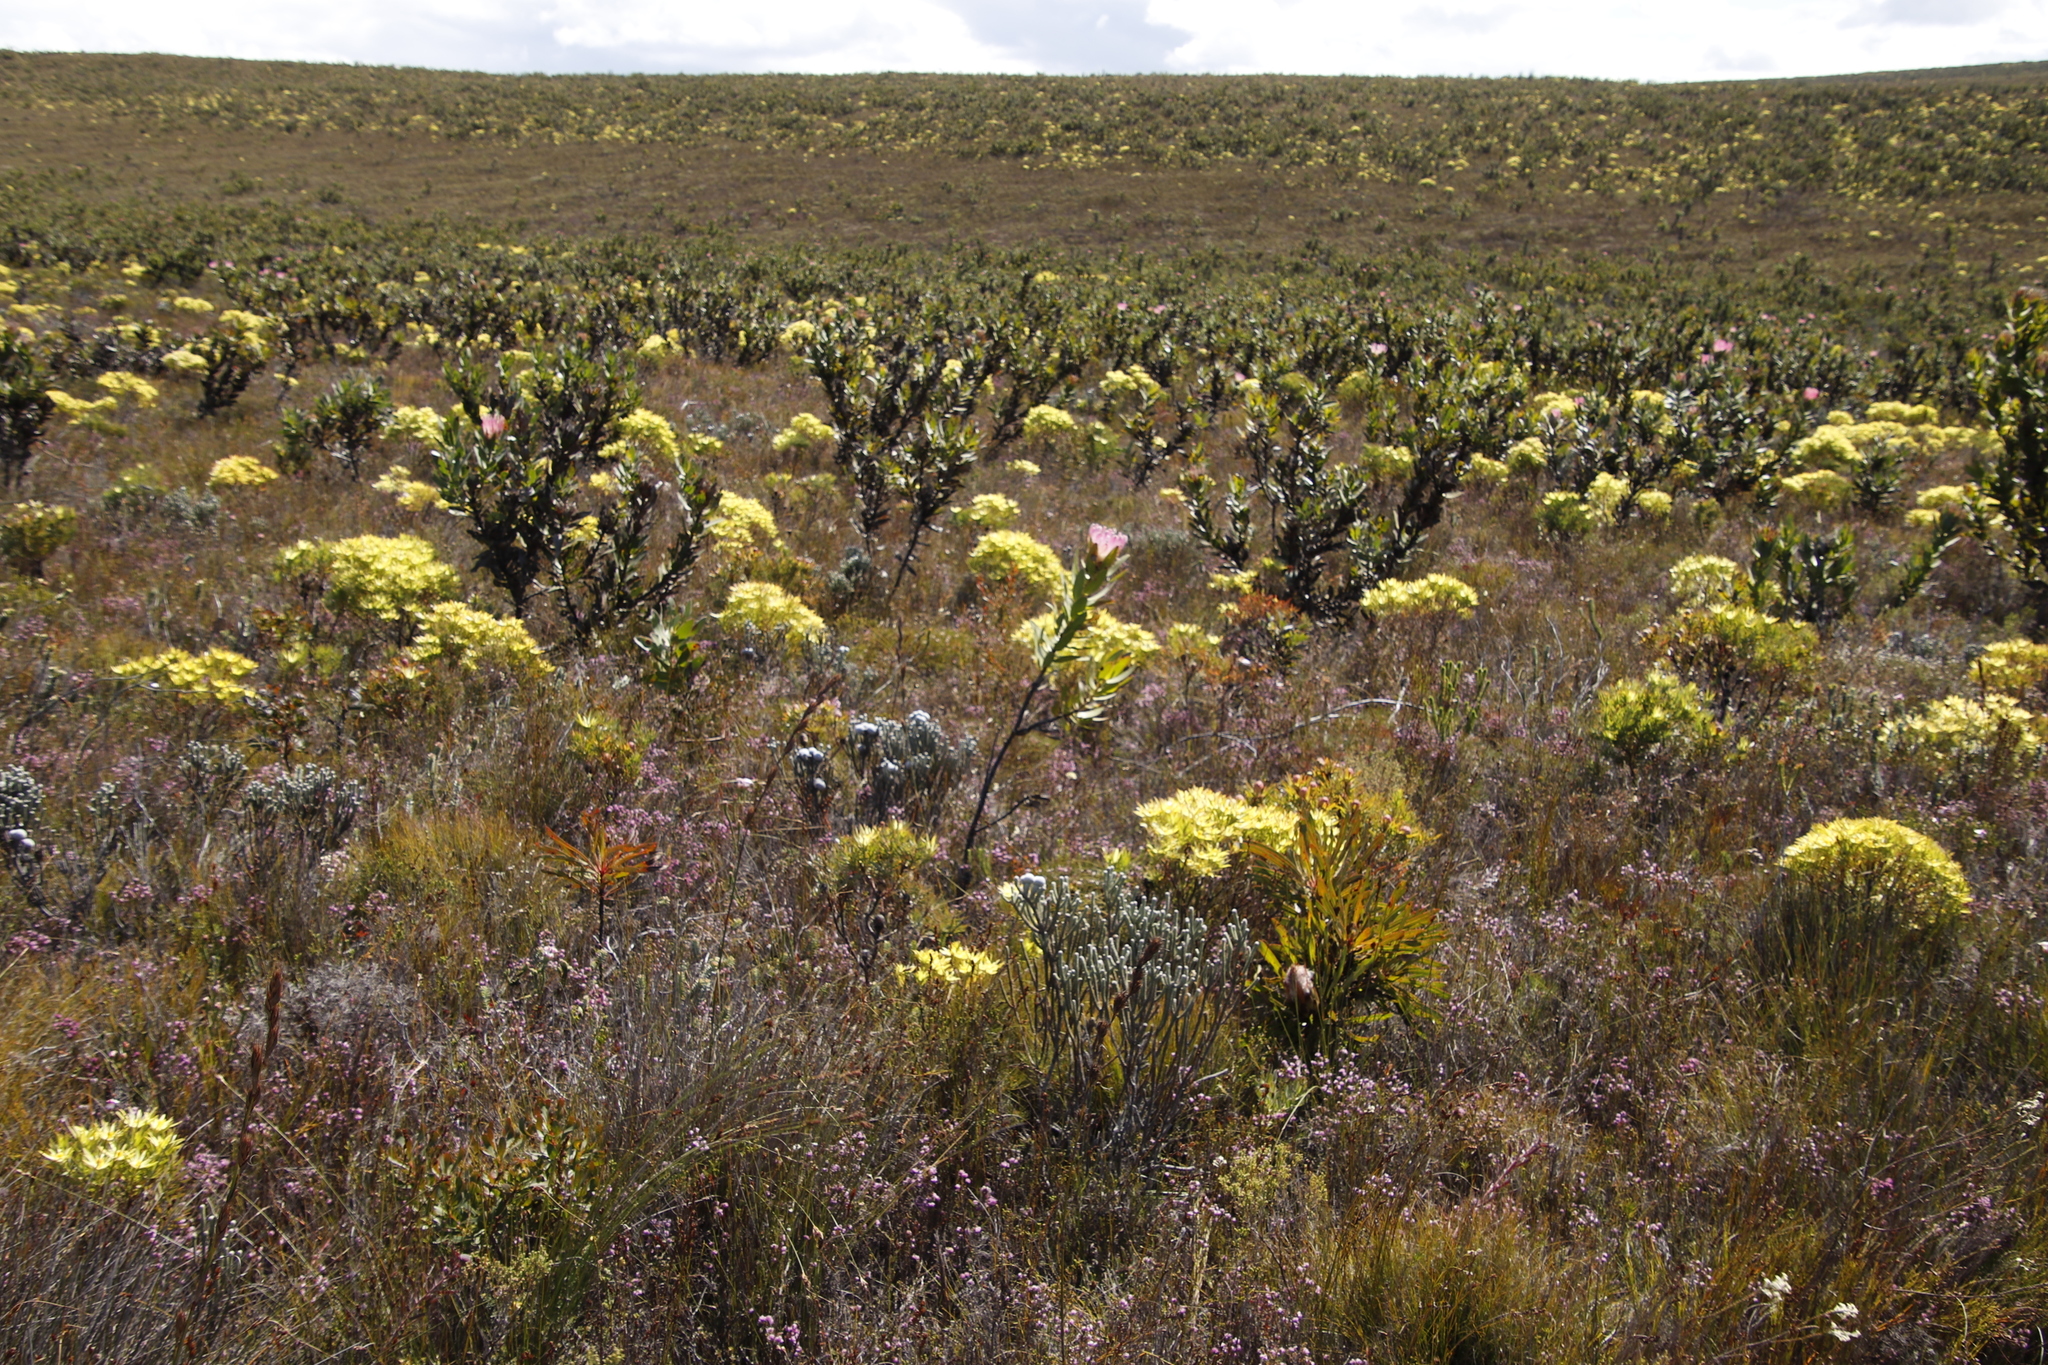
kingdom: Plantae
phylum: Tracheophyta
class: Magnoliopsida
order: Proteales
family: Proteaceae
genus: Leucadendron
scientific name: Leucadendron xanthoconus
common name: Sickle-leaf conebush
